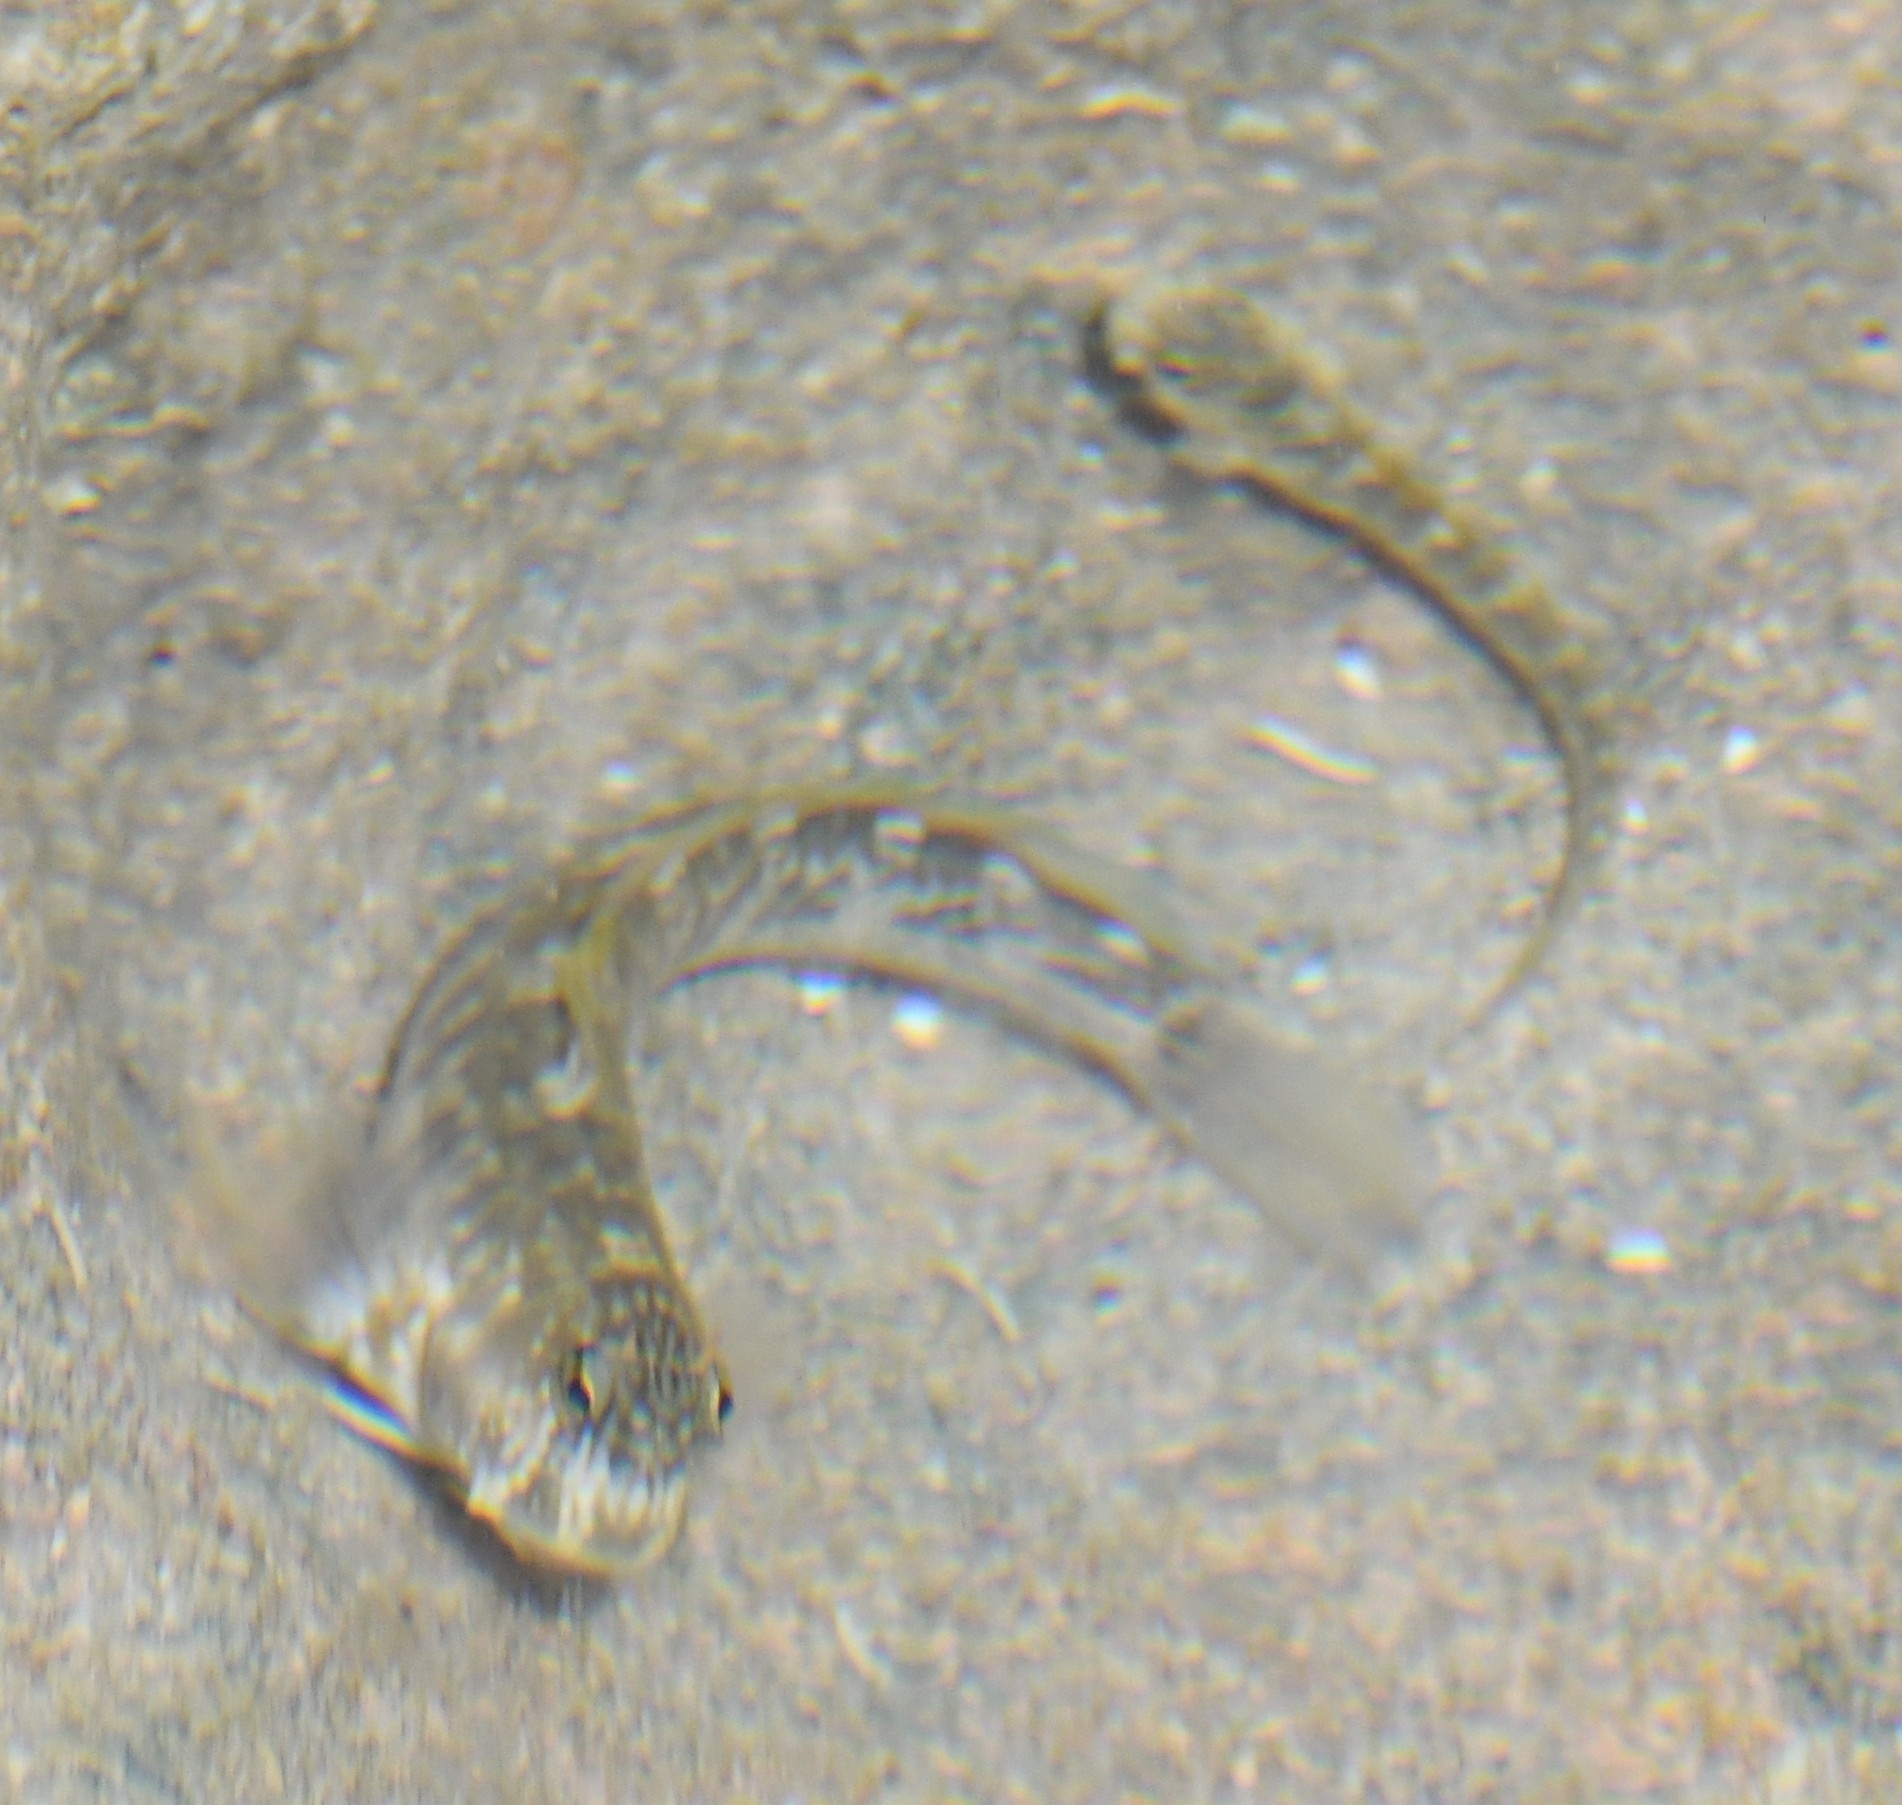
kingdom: Animalia
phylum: Chordata
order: Perciformes
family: Blenniidae
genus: Istiblennius
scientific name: Istiblennius zebra
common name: Zebra blenny
